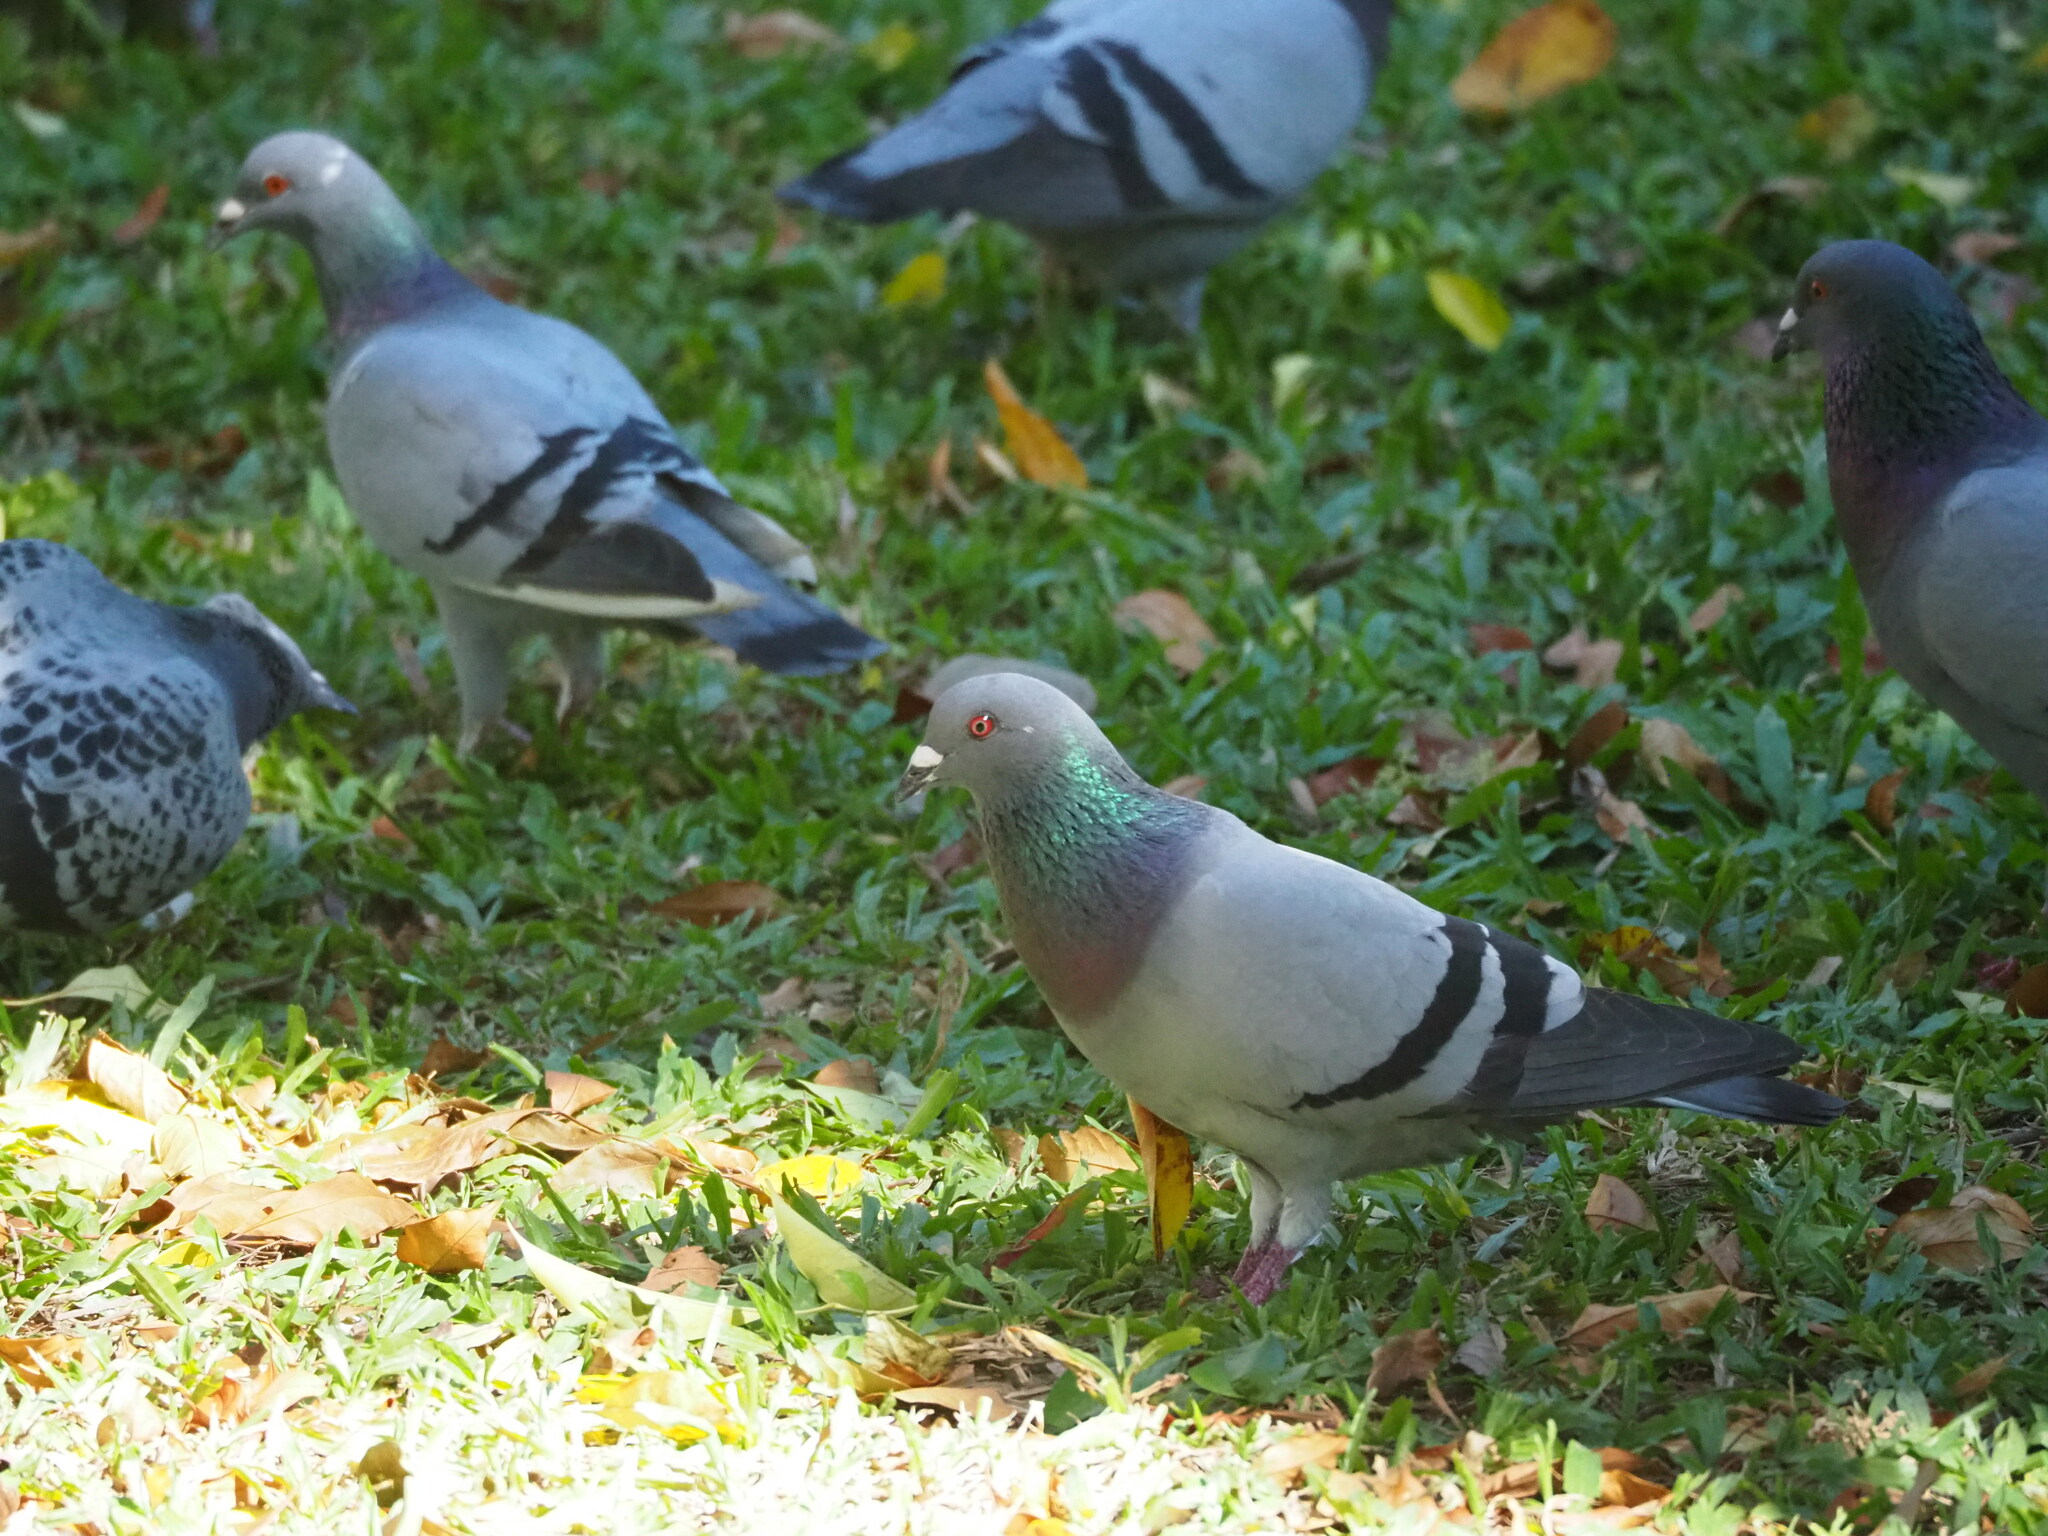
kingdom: Animalia
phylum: Chordata
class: Aves
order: Columbiformes
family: Columbidae
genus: Columba
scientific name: Columba livia
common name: Rock pigeon
